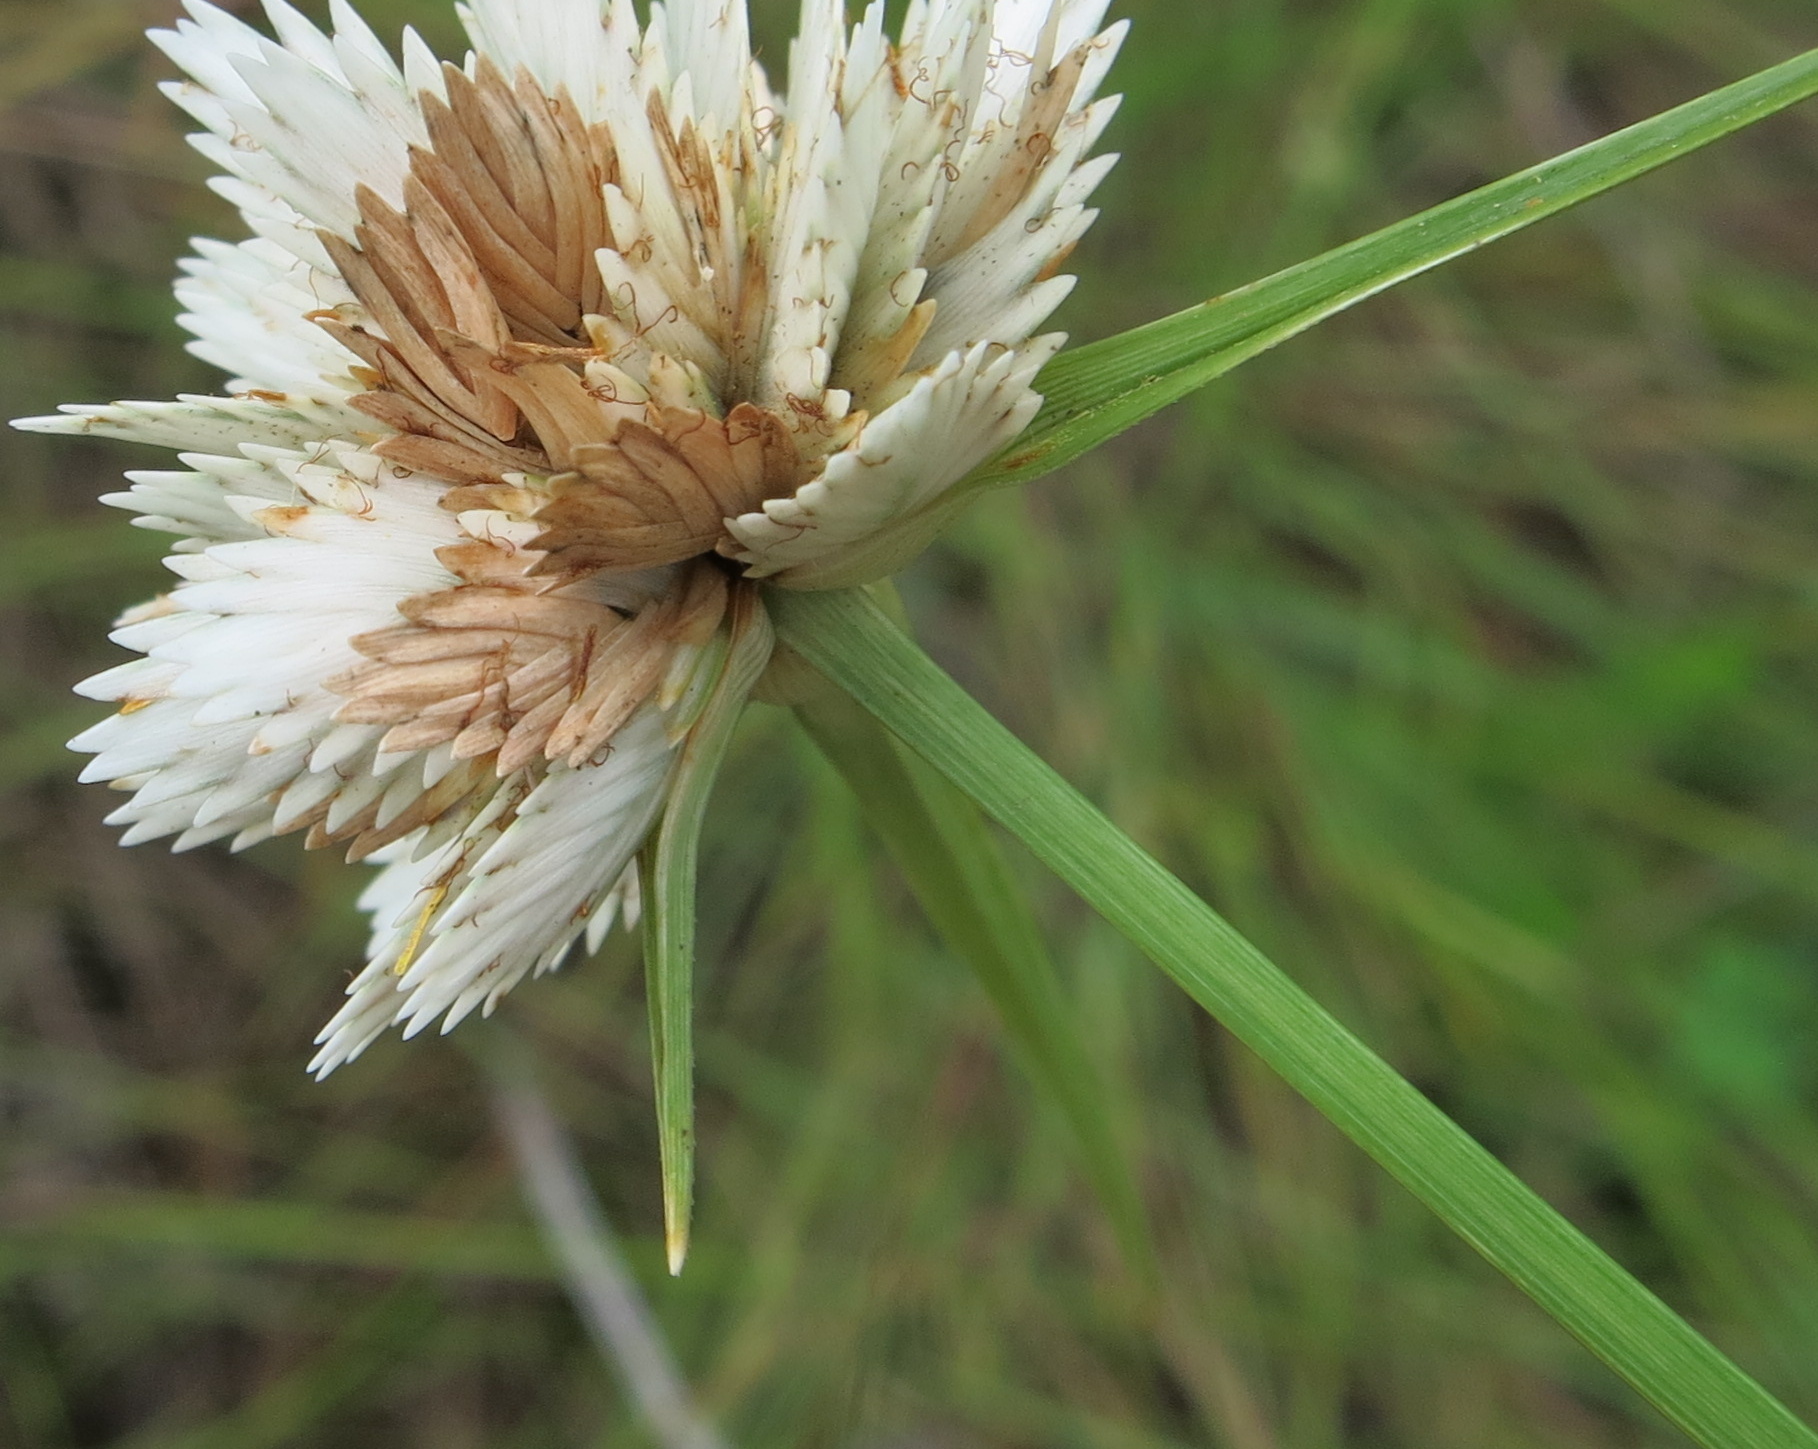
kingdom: Plantae
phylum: Tracheophyta
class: Liliopsida
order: Poales
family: Cyperaceae
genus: Cyperus
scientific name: Cyperus niveus
